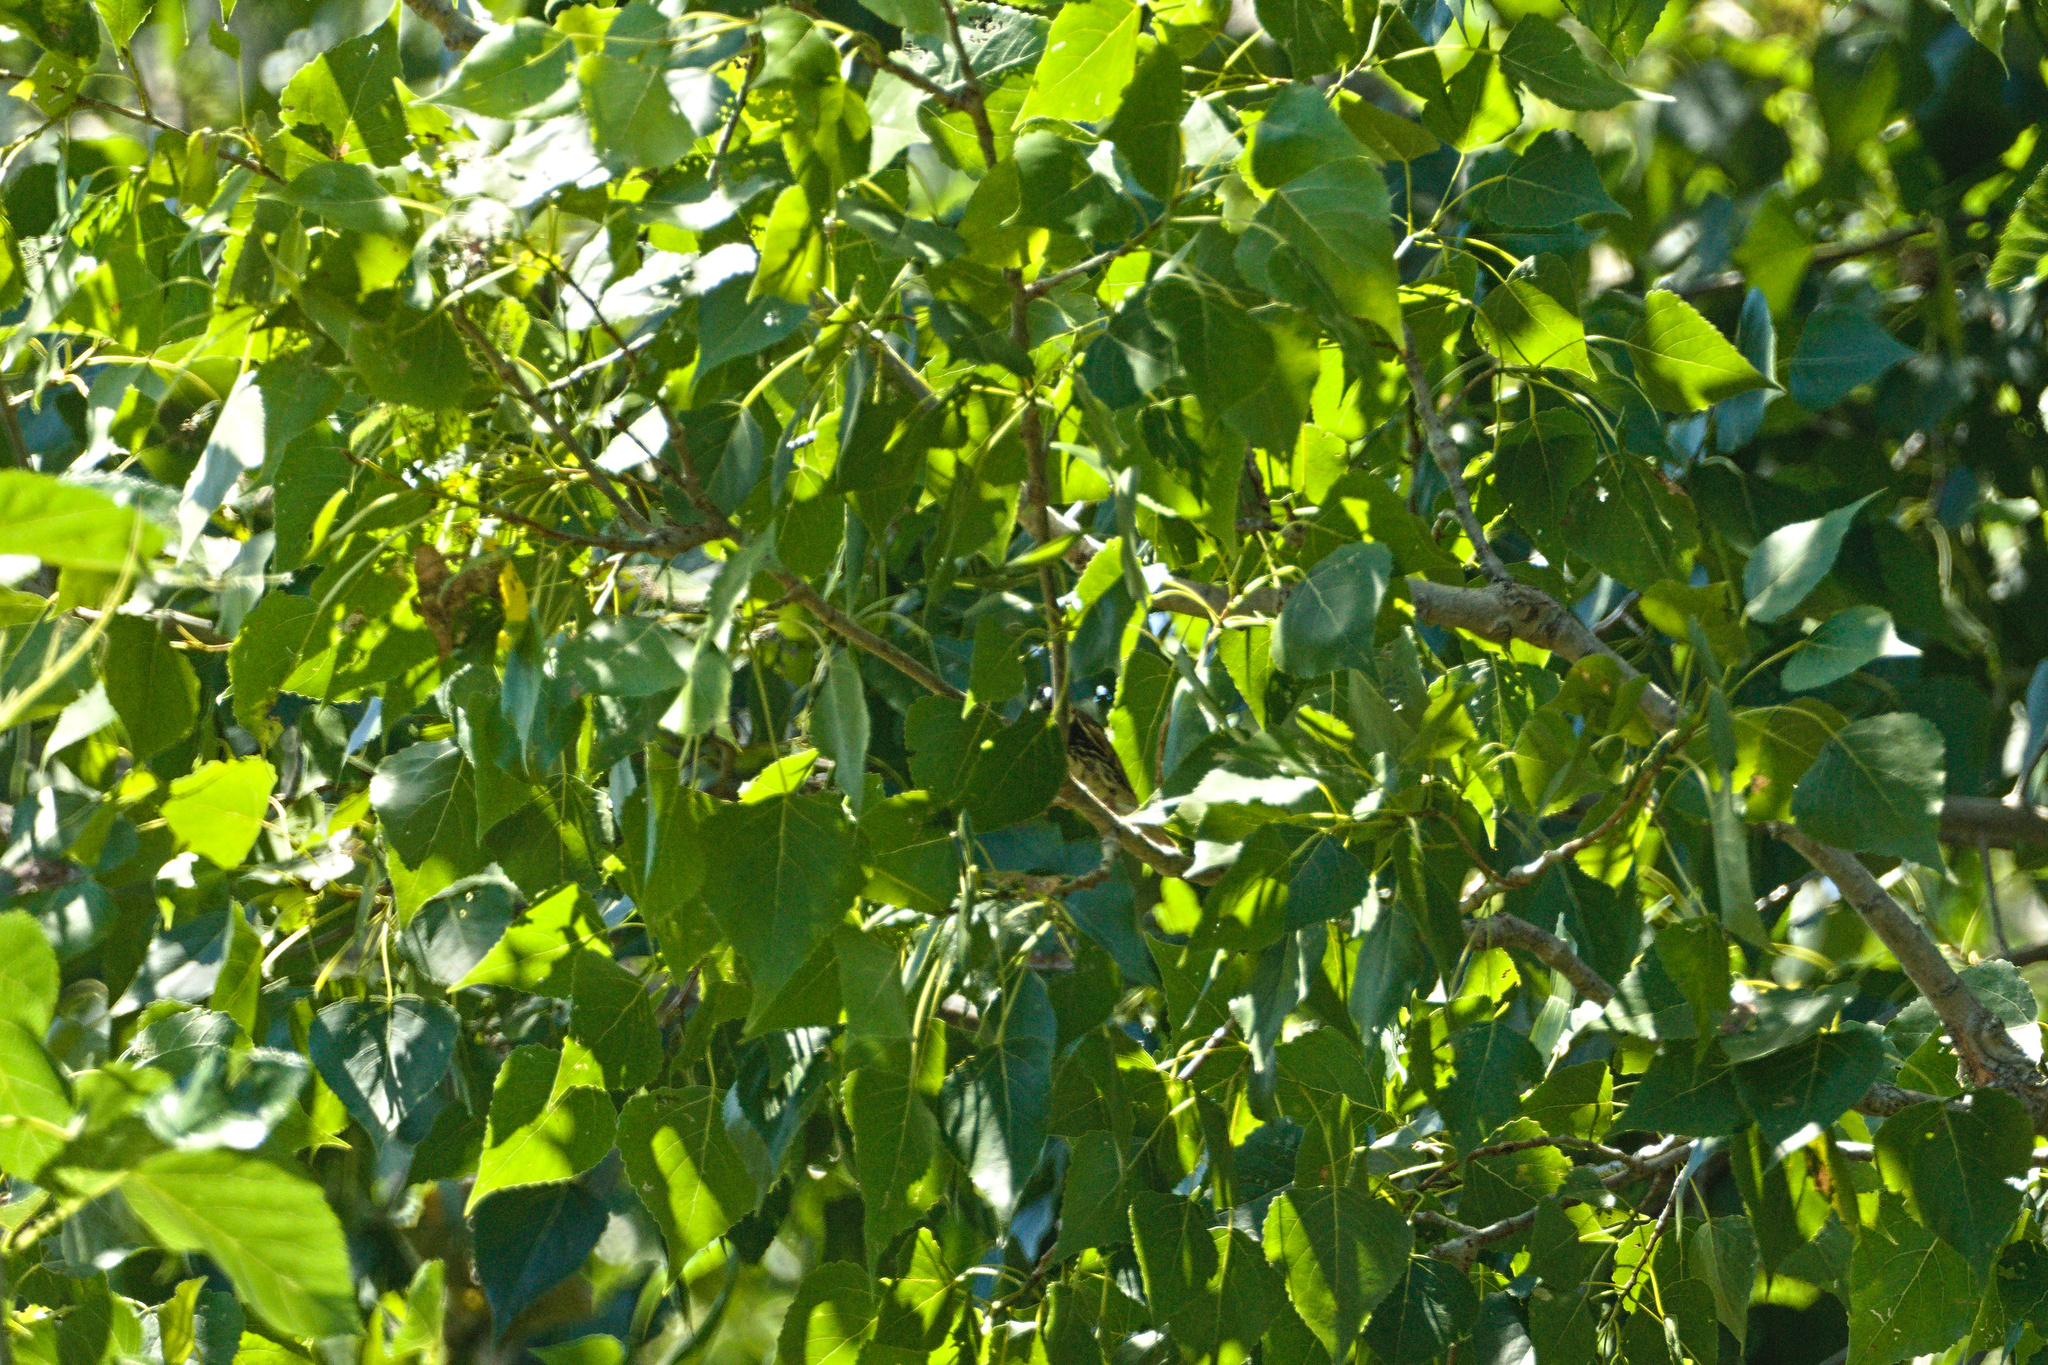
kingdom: Animalia
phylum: Chordata
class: Aves
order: Passeriformes
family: Passeridae
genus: Passer
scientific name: Passer
